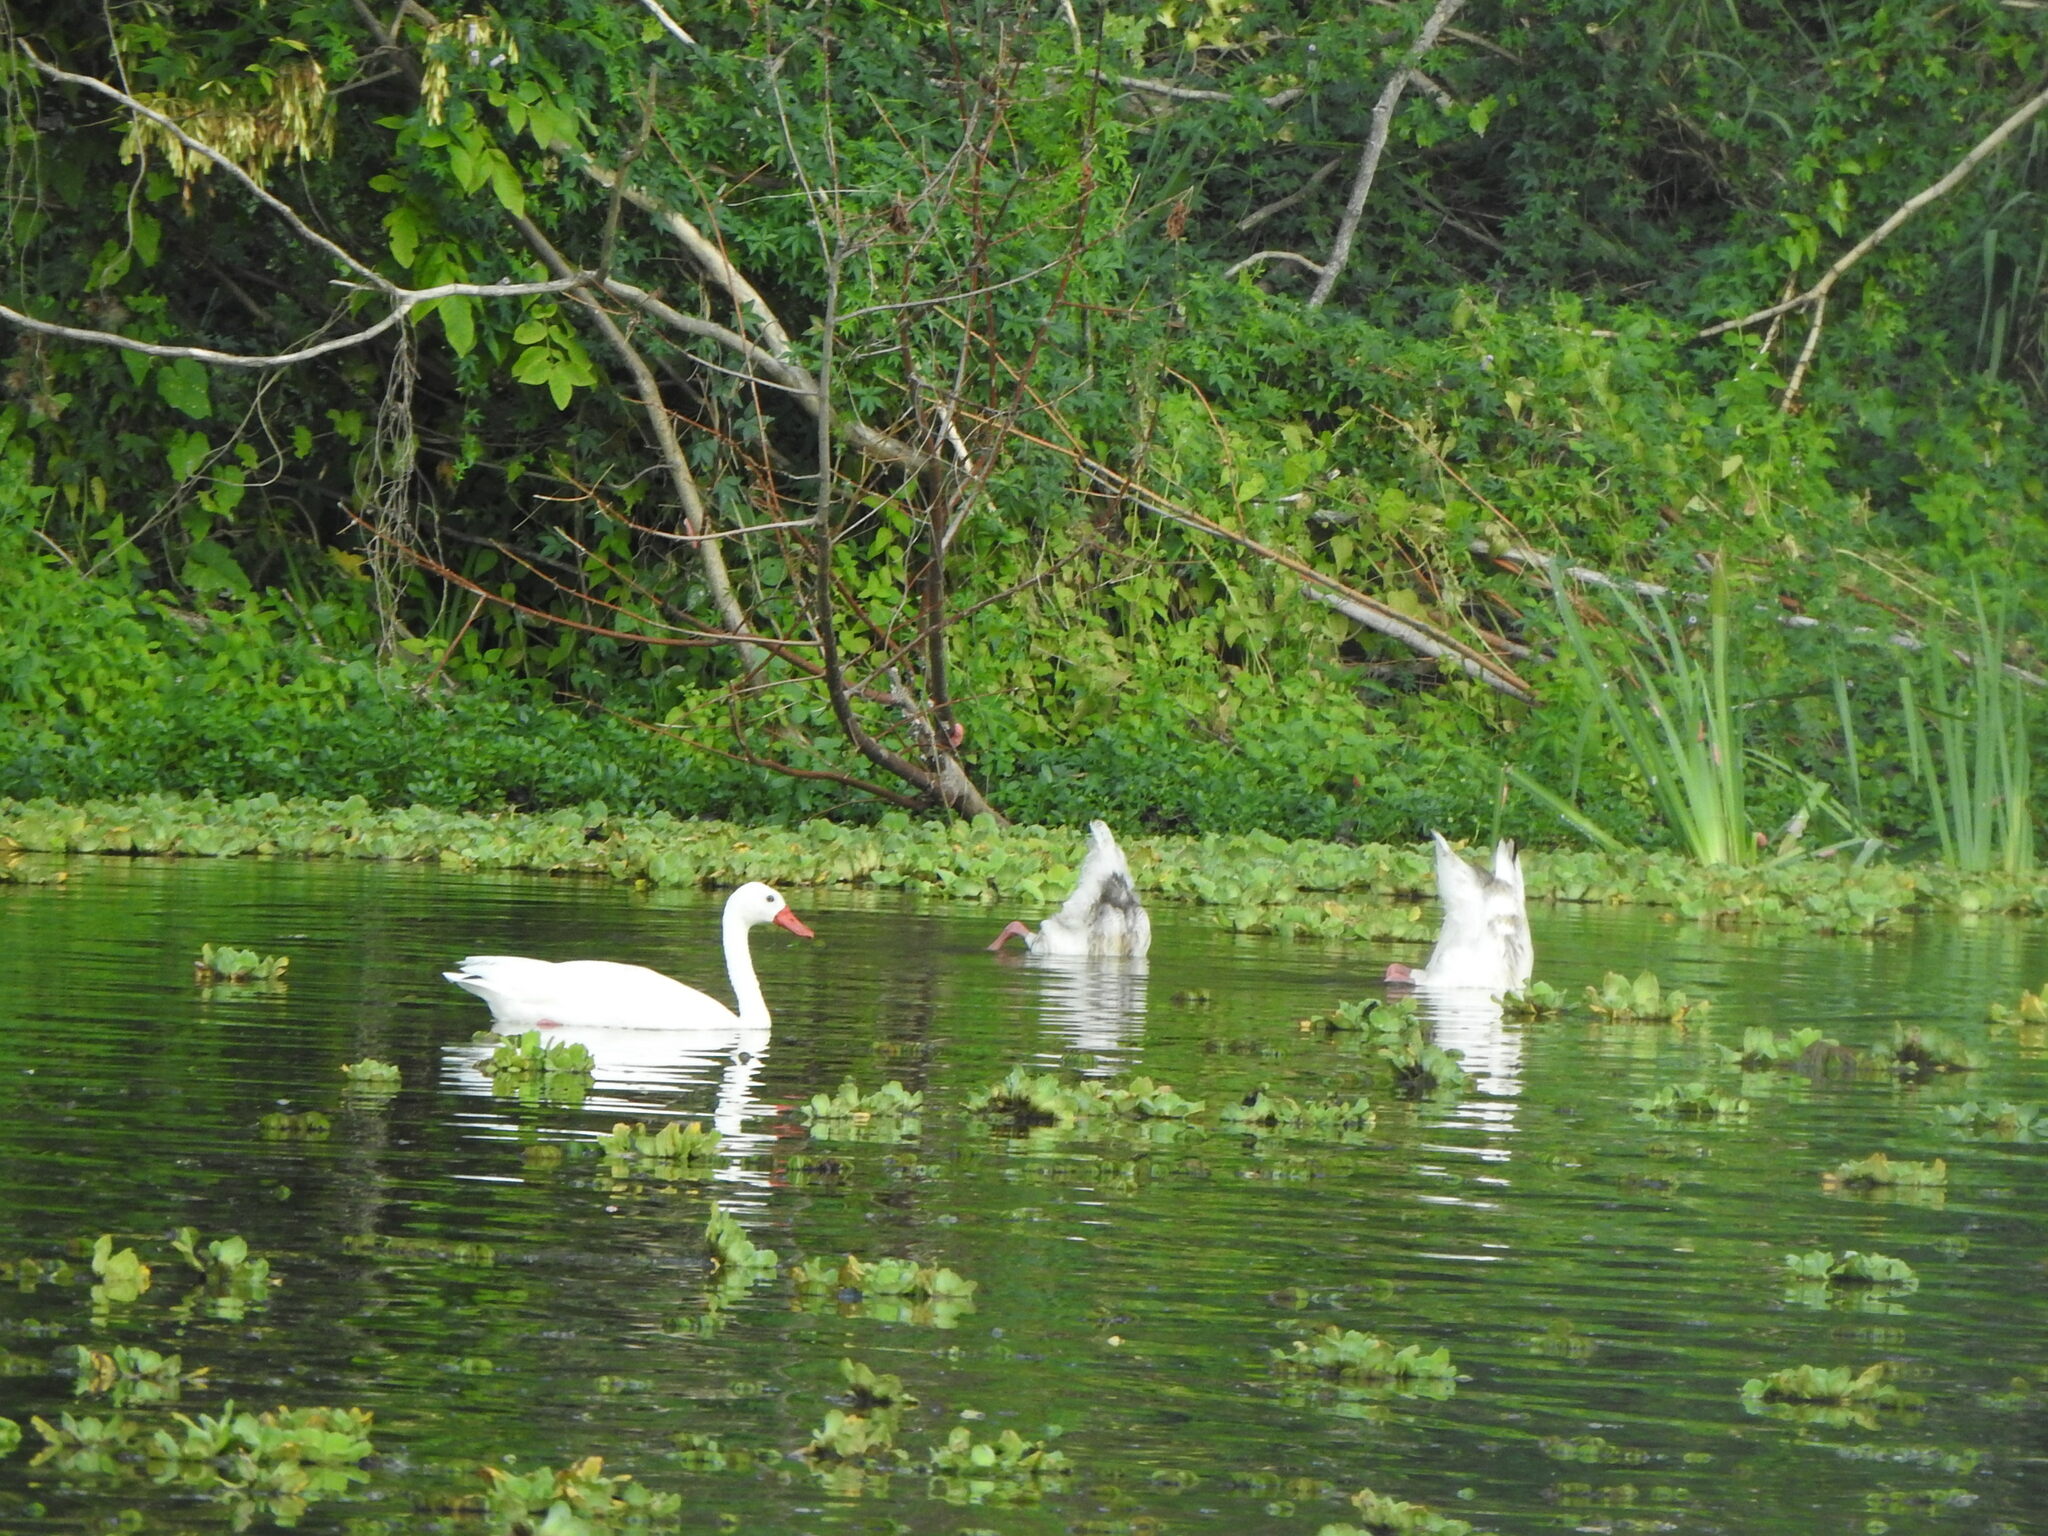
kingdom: Animalia
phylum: Chordata
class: Aves
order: Anseriformes
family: Anatidae
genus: Coscoroba
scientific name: Coscoroba coscoroba
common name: Coscoroba swan
